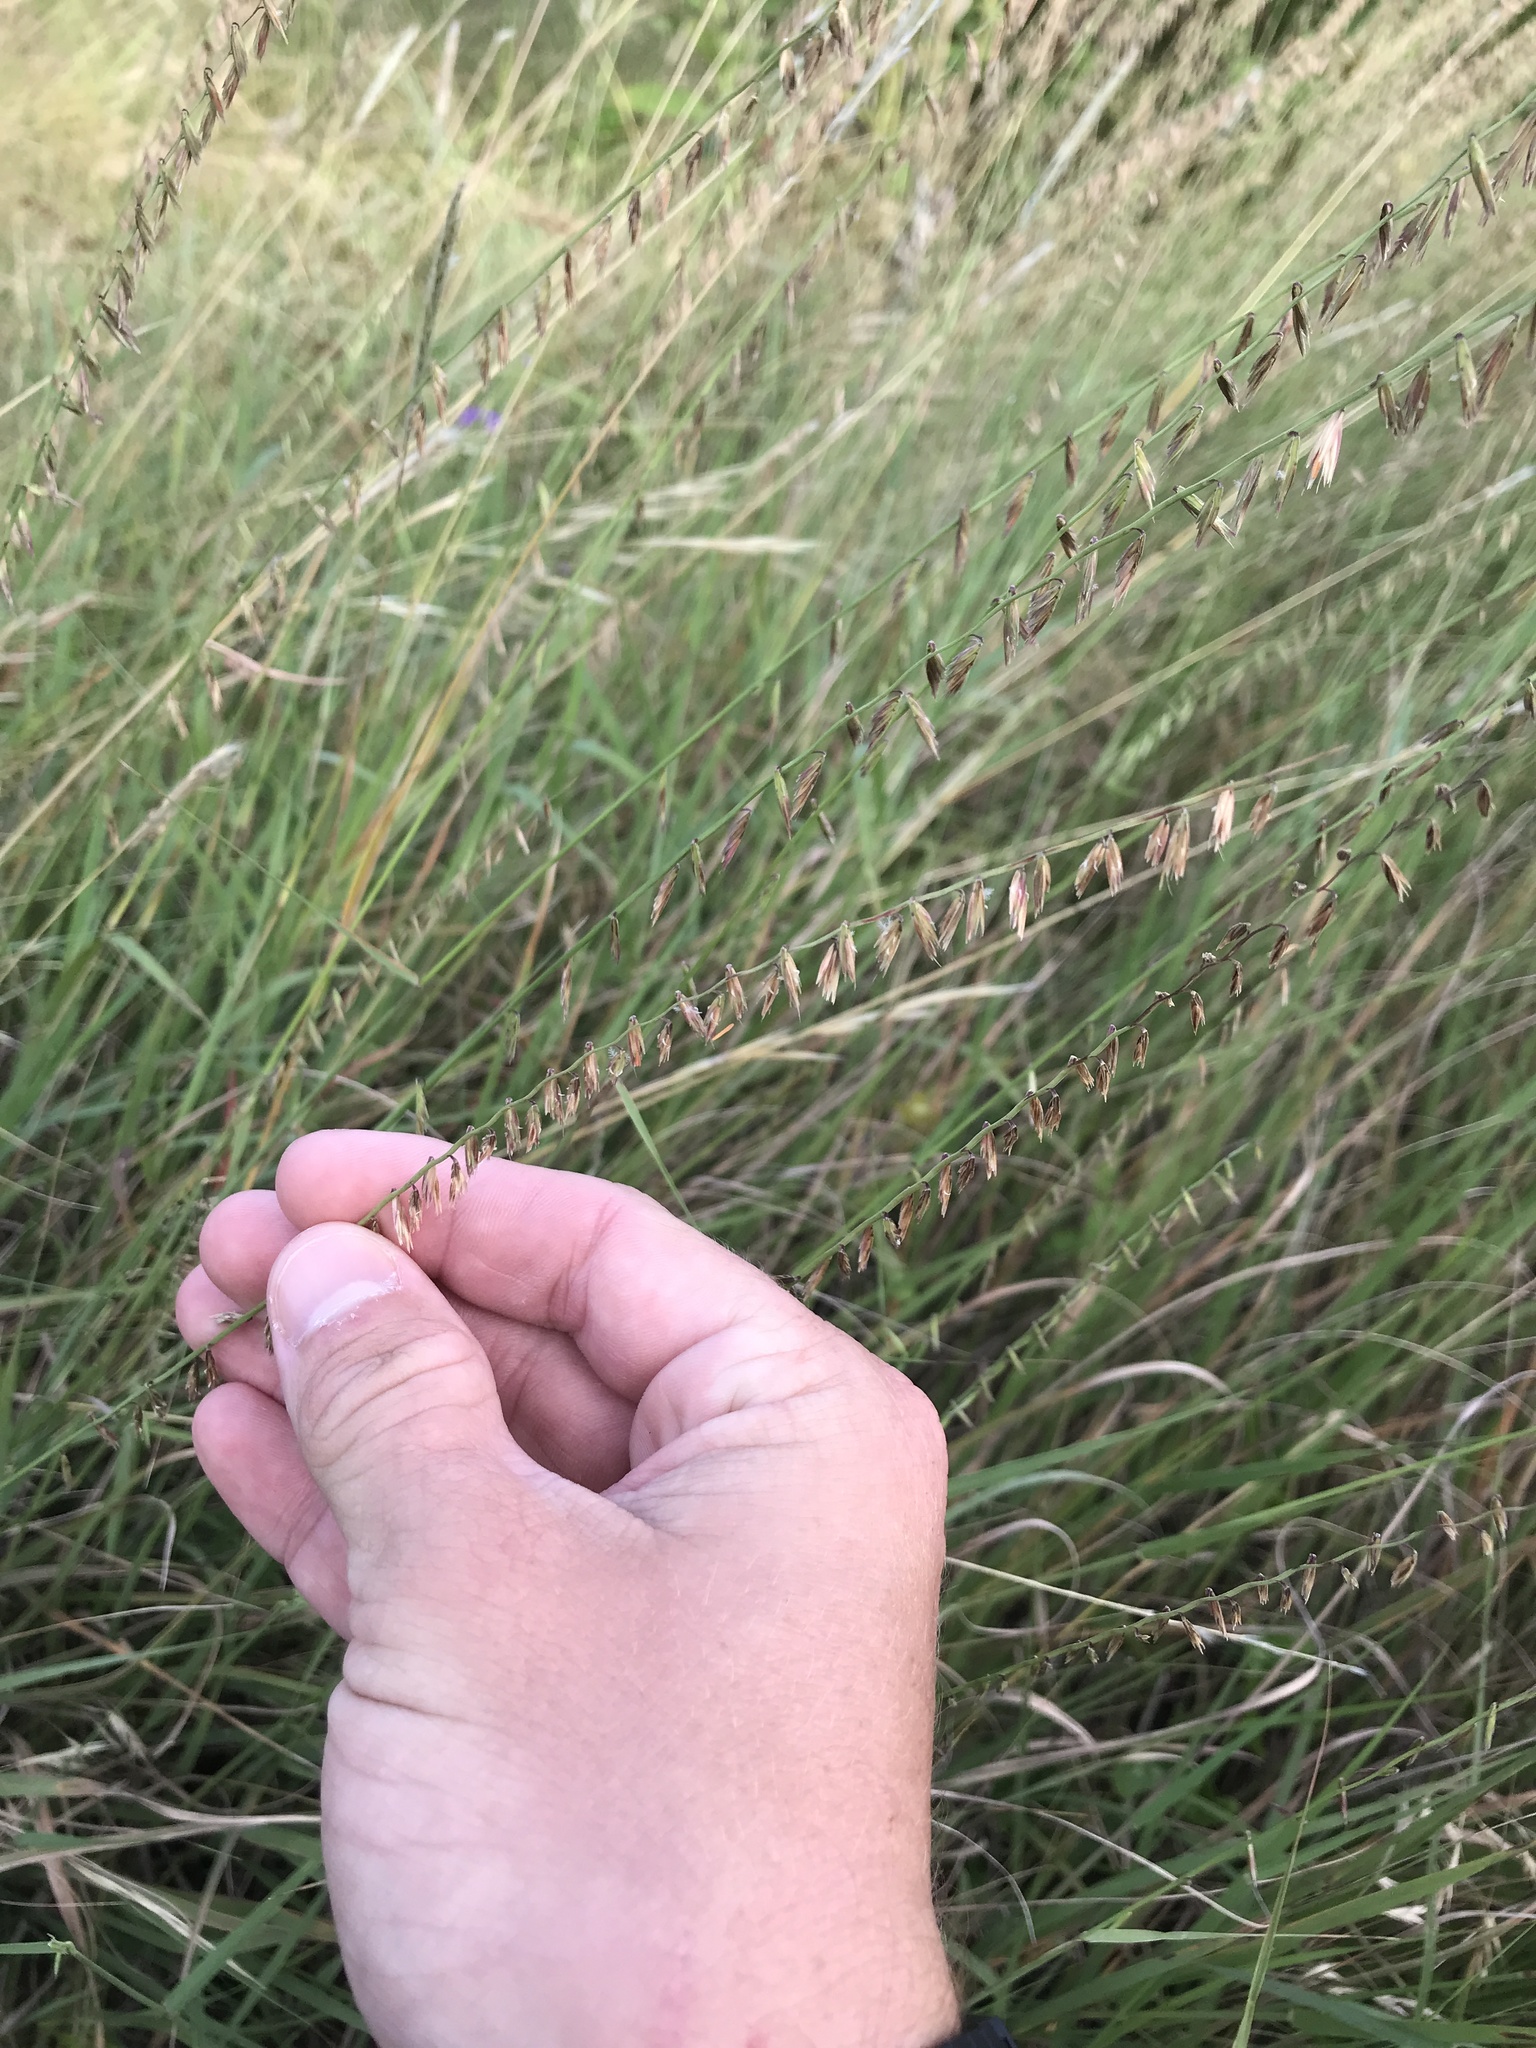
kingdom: Plantae
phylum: Tracheophyta
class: Liliopsida
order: Poales
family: Poaceae
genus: Bouteloua
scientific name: Bouteloua curtipendula
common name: Side-oats grama
